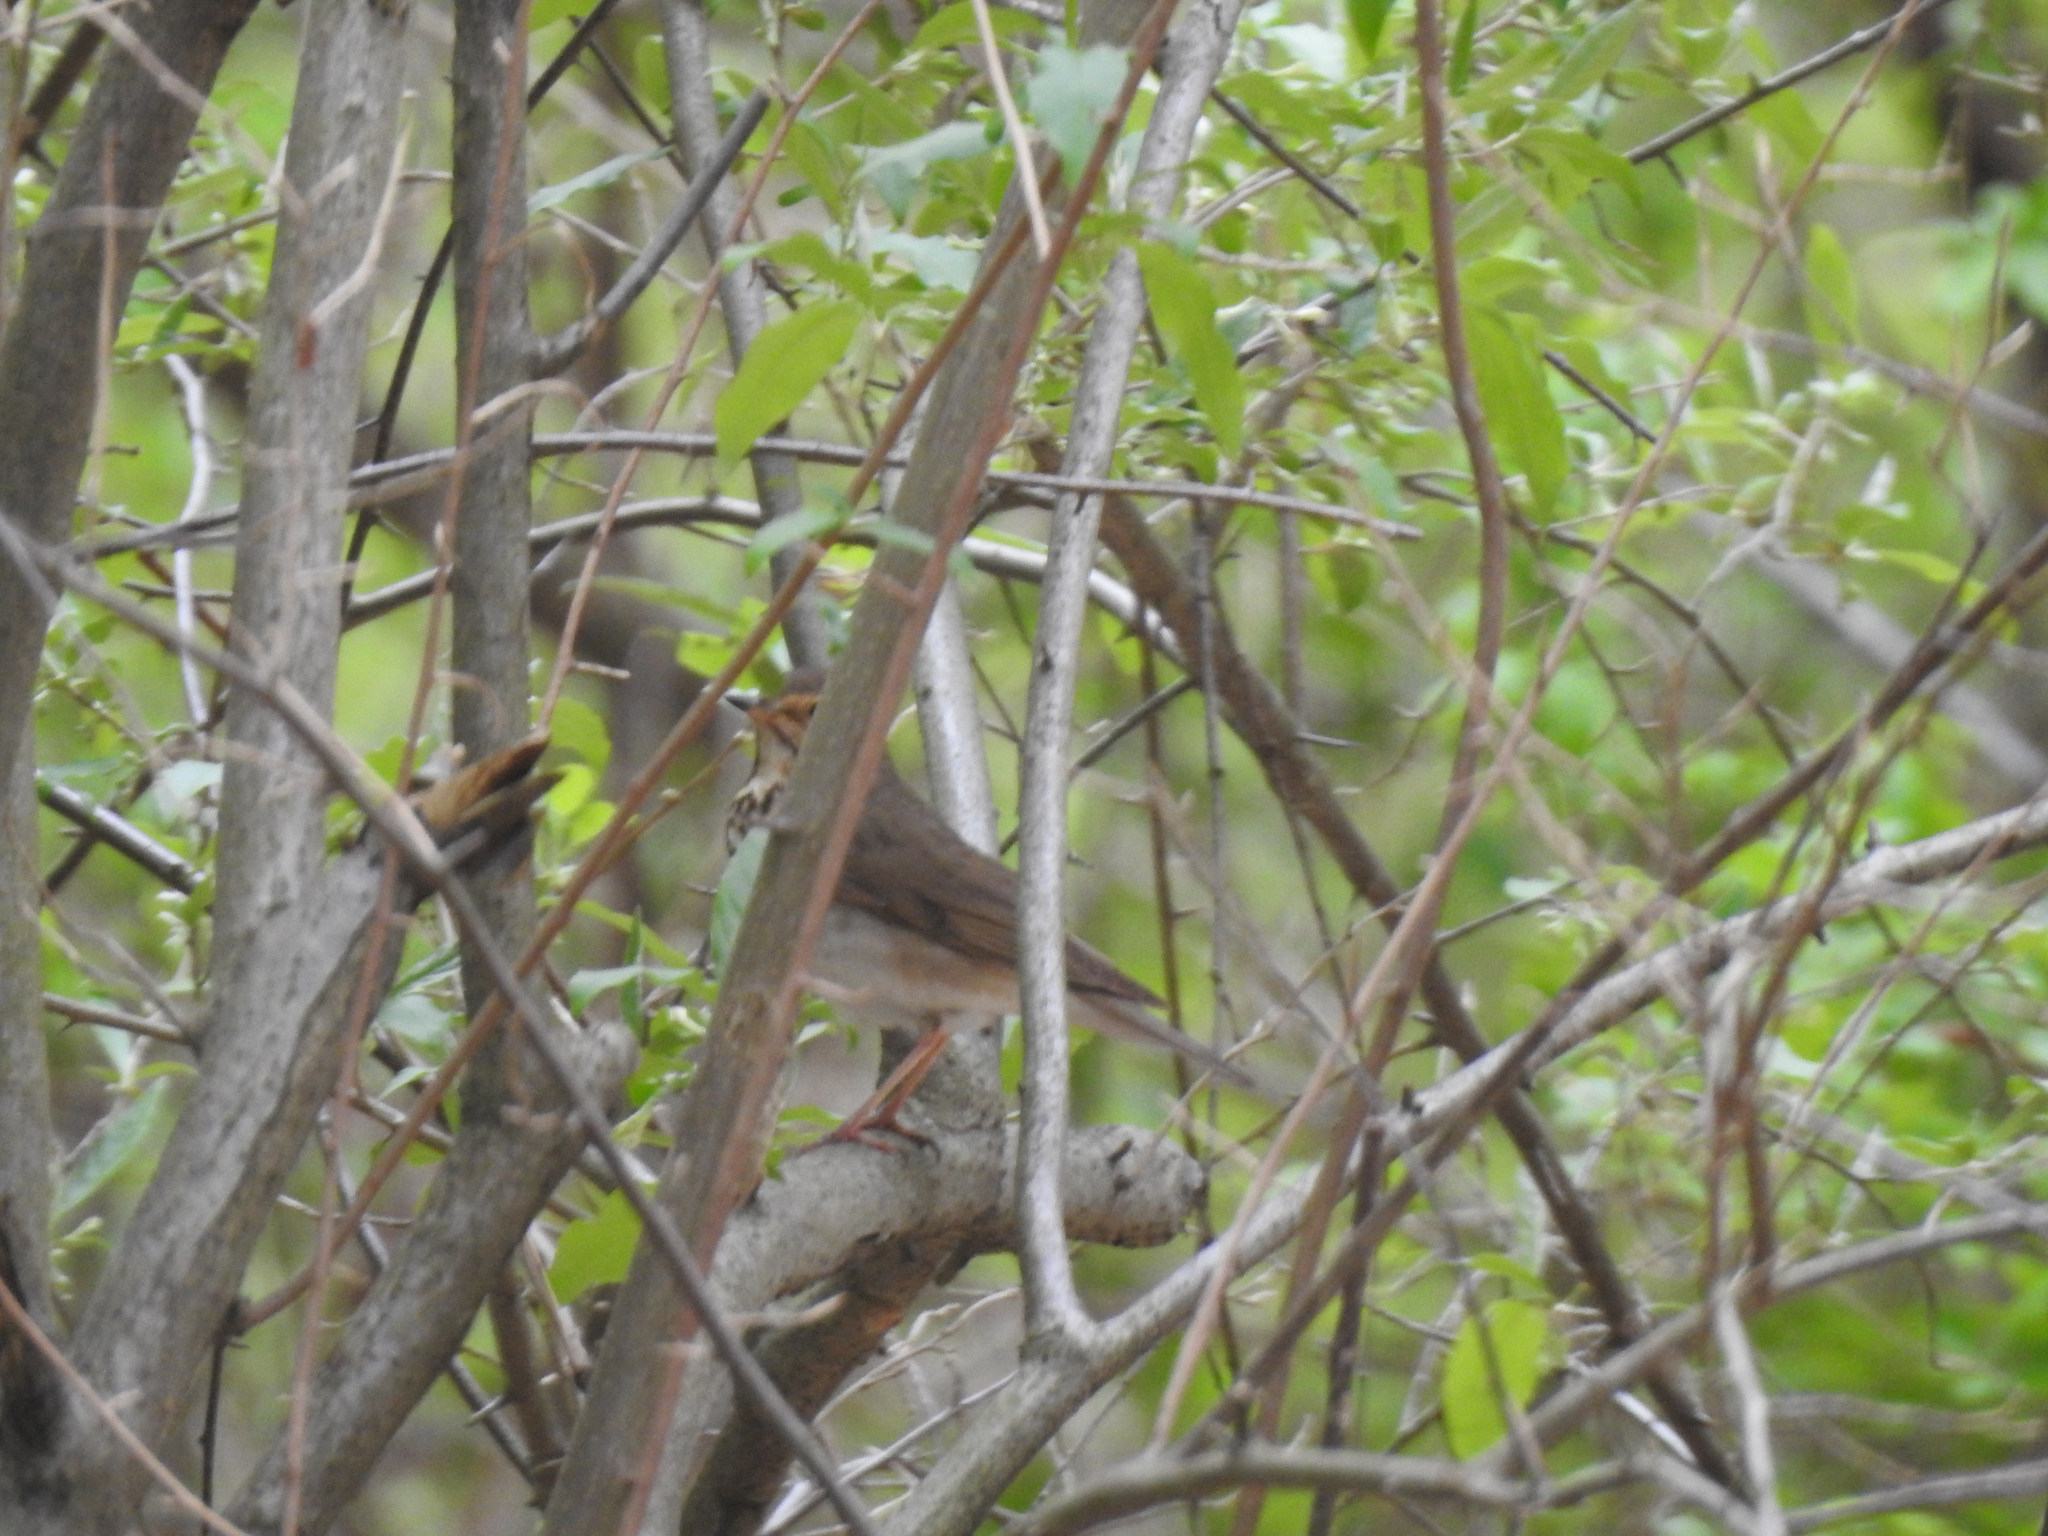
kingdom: Animalia
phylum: Chordata
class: Aves
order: Passeriformes
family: Turdidae
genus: Catharus
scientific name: Catharus ustulatus
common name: Swainson's thrush
